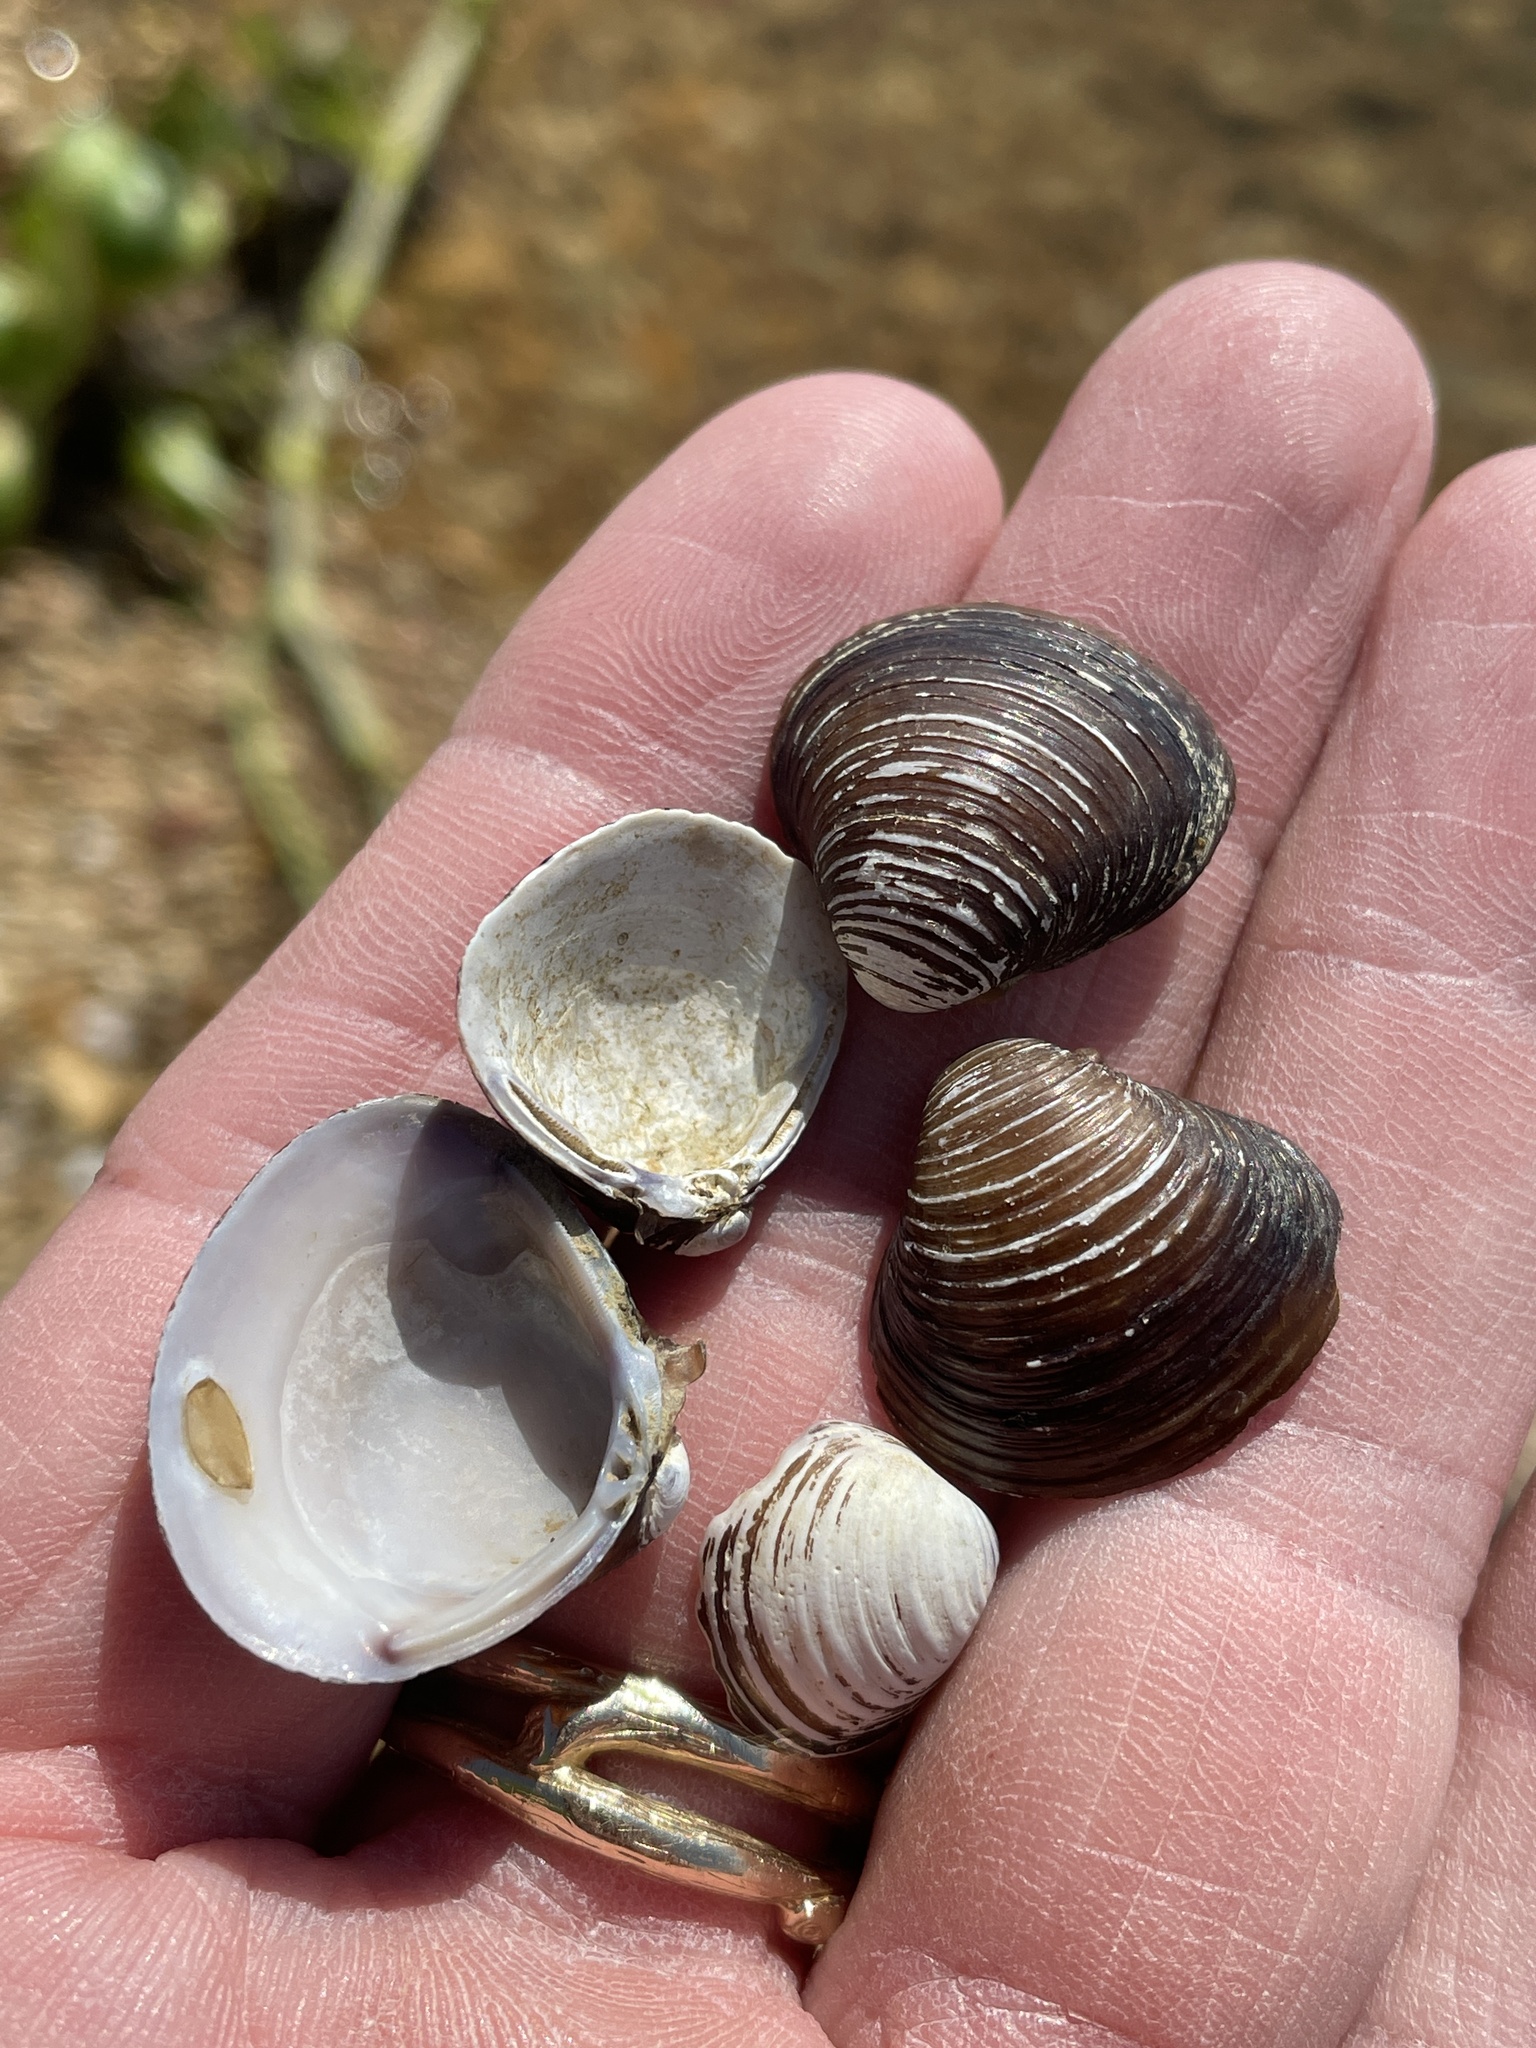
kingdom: Animalia
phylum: Mollusca
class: Bivalvia
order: Venerida
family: Cyrenidae
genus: Corbicula
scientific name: Corbicula fluminea
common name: Asian clam
